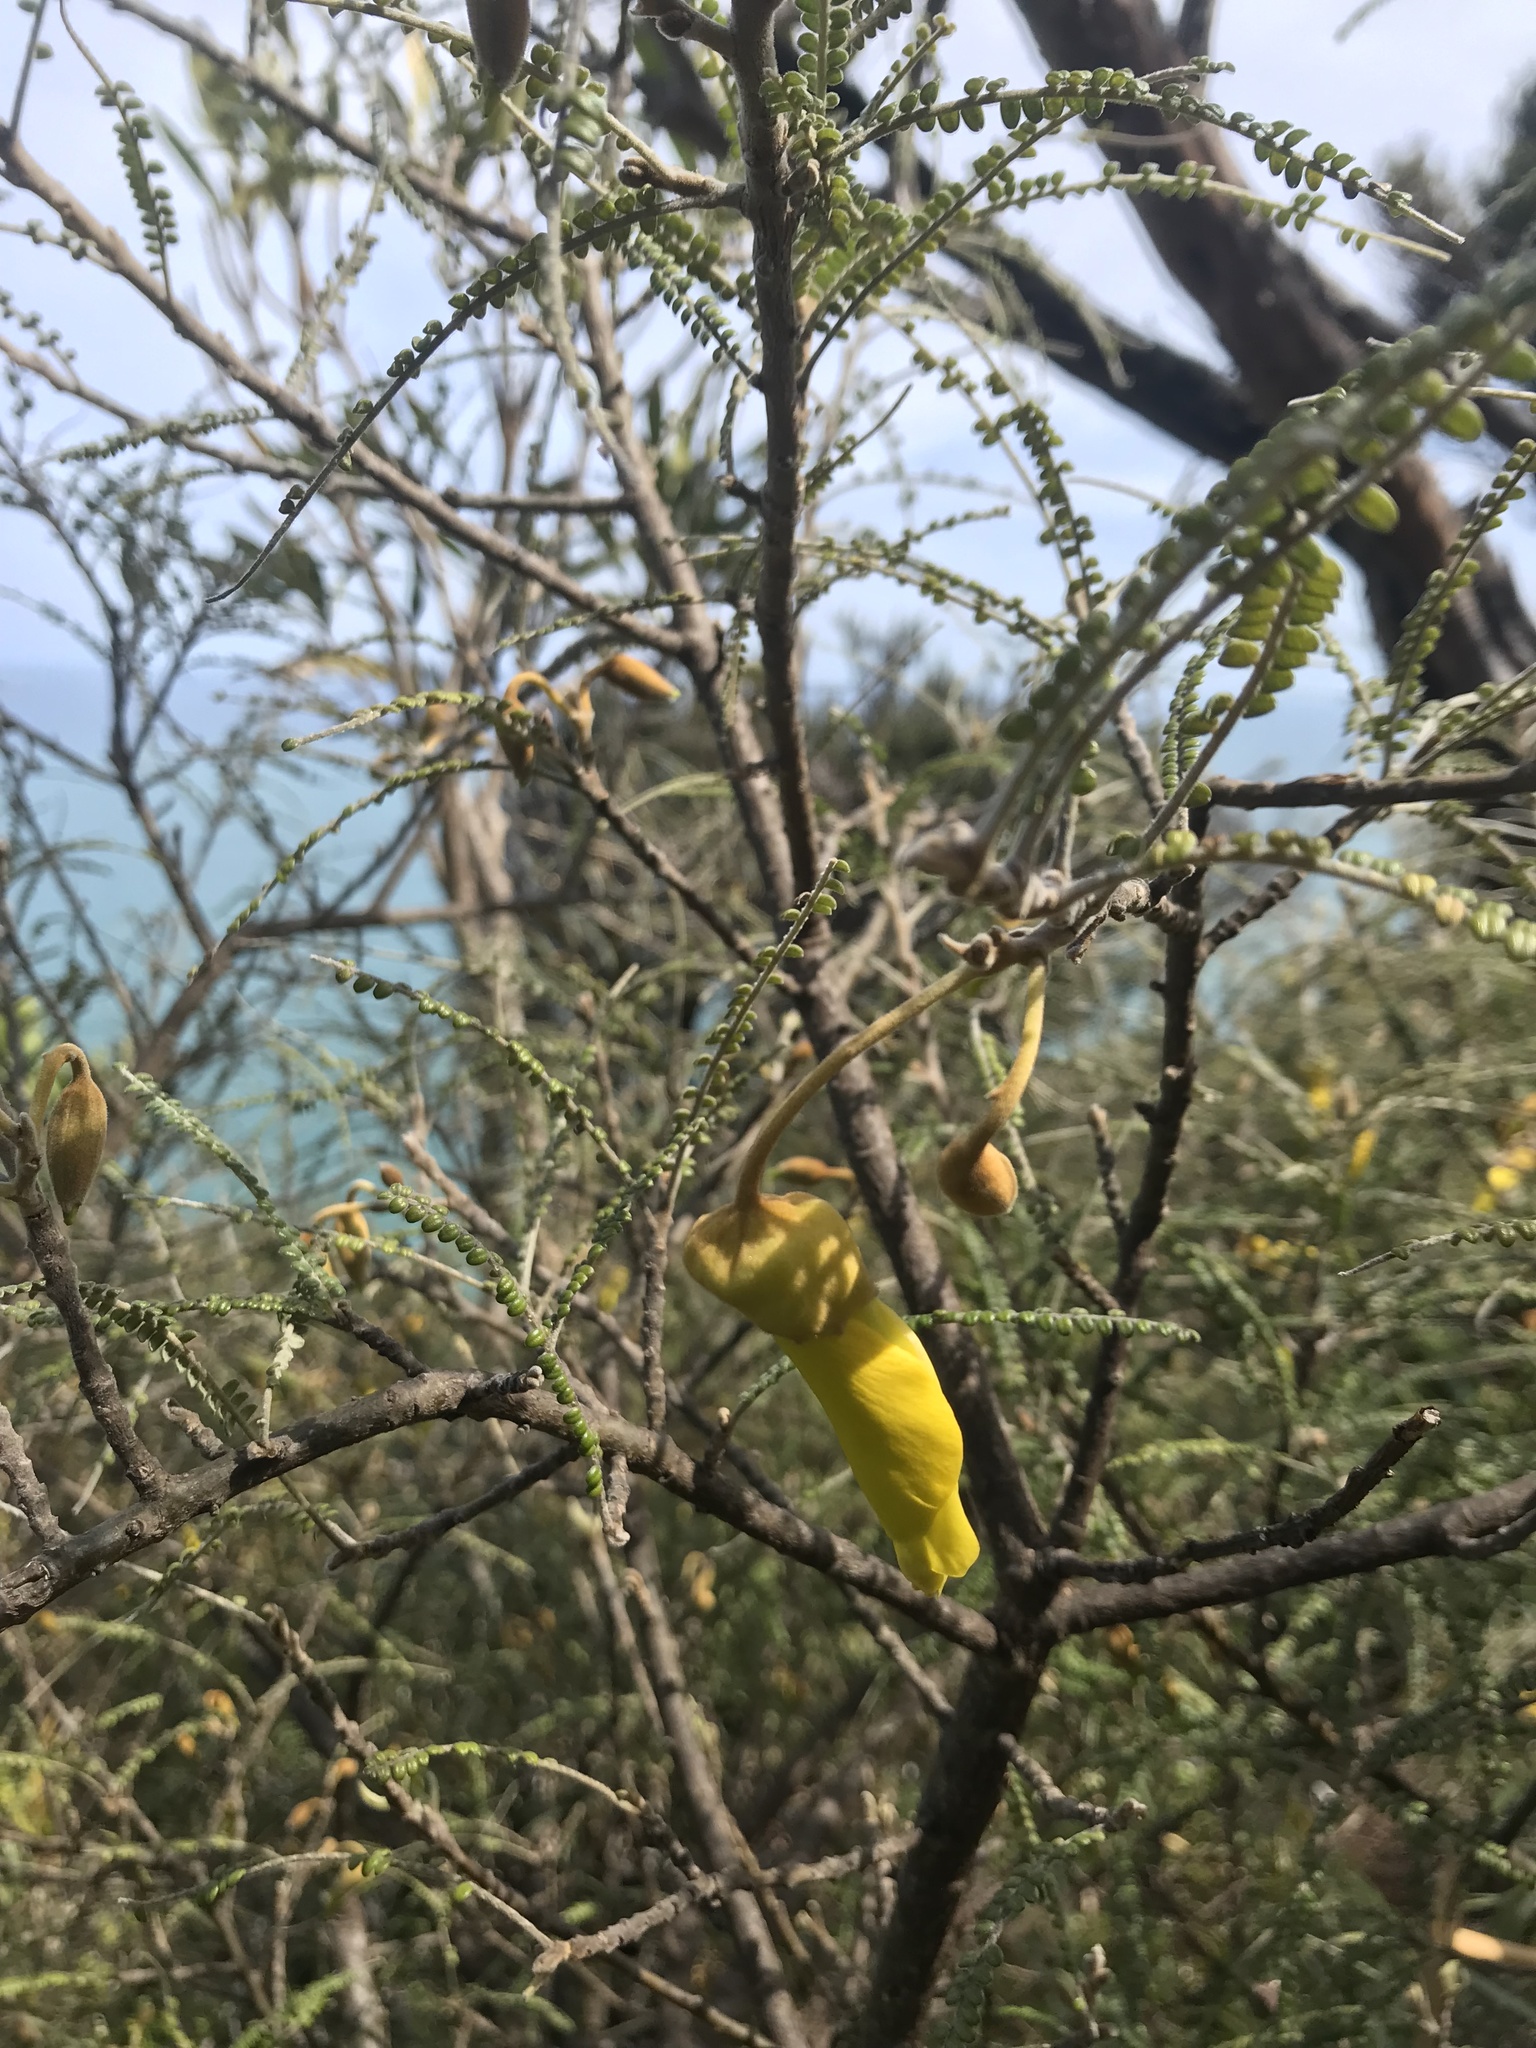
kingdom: Plantae
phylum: Tracheophyta
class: Magnoliopsida
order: Fabales
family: Fabaceae
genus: Sophora
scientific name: Sophora fulvida
